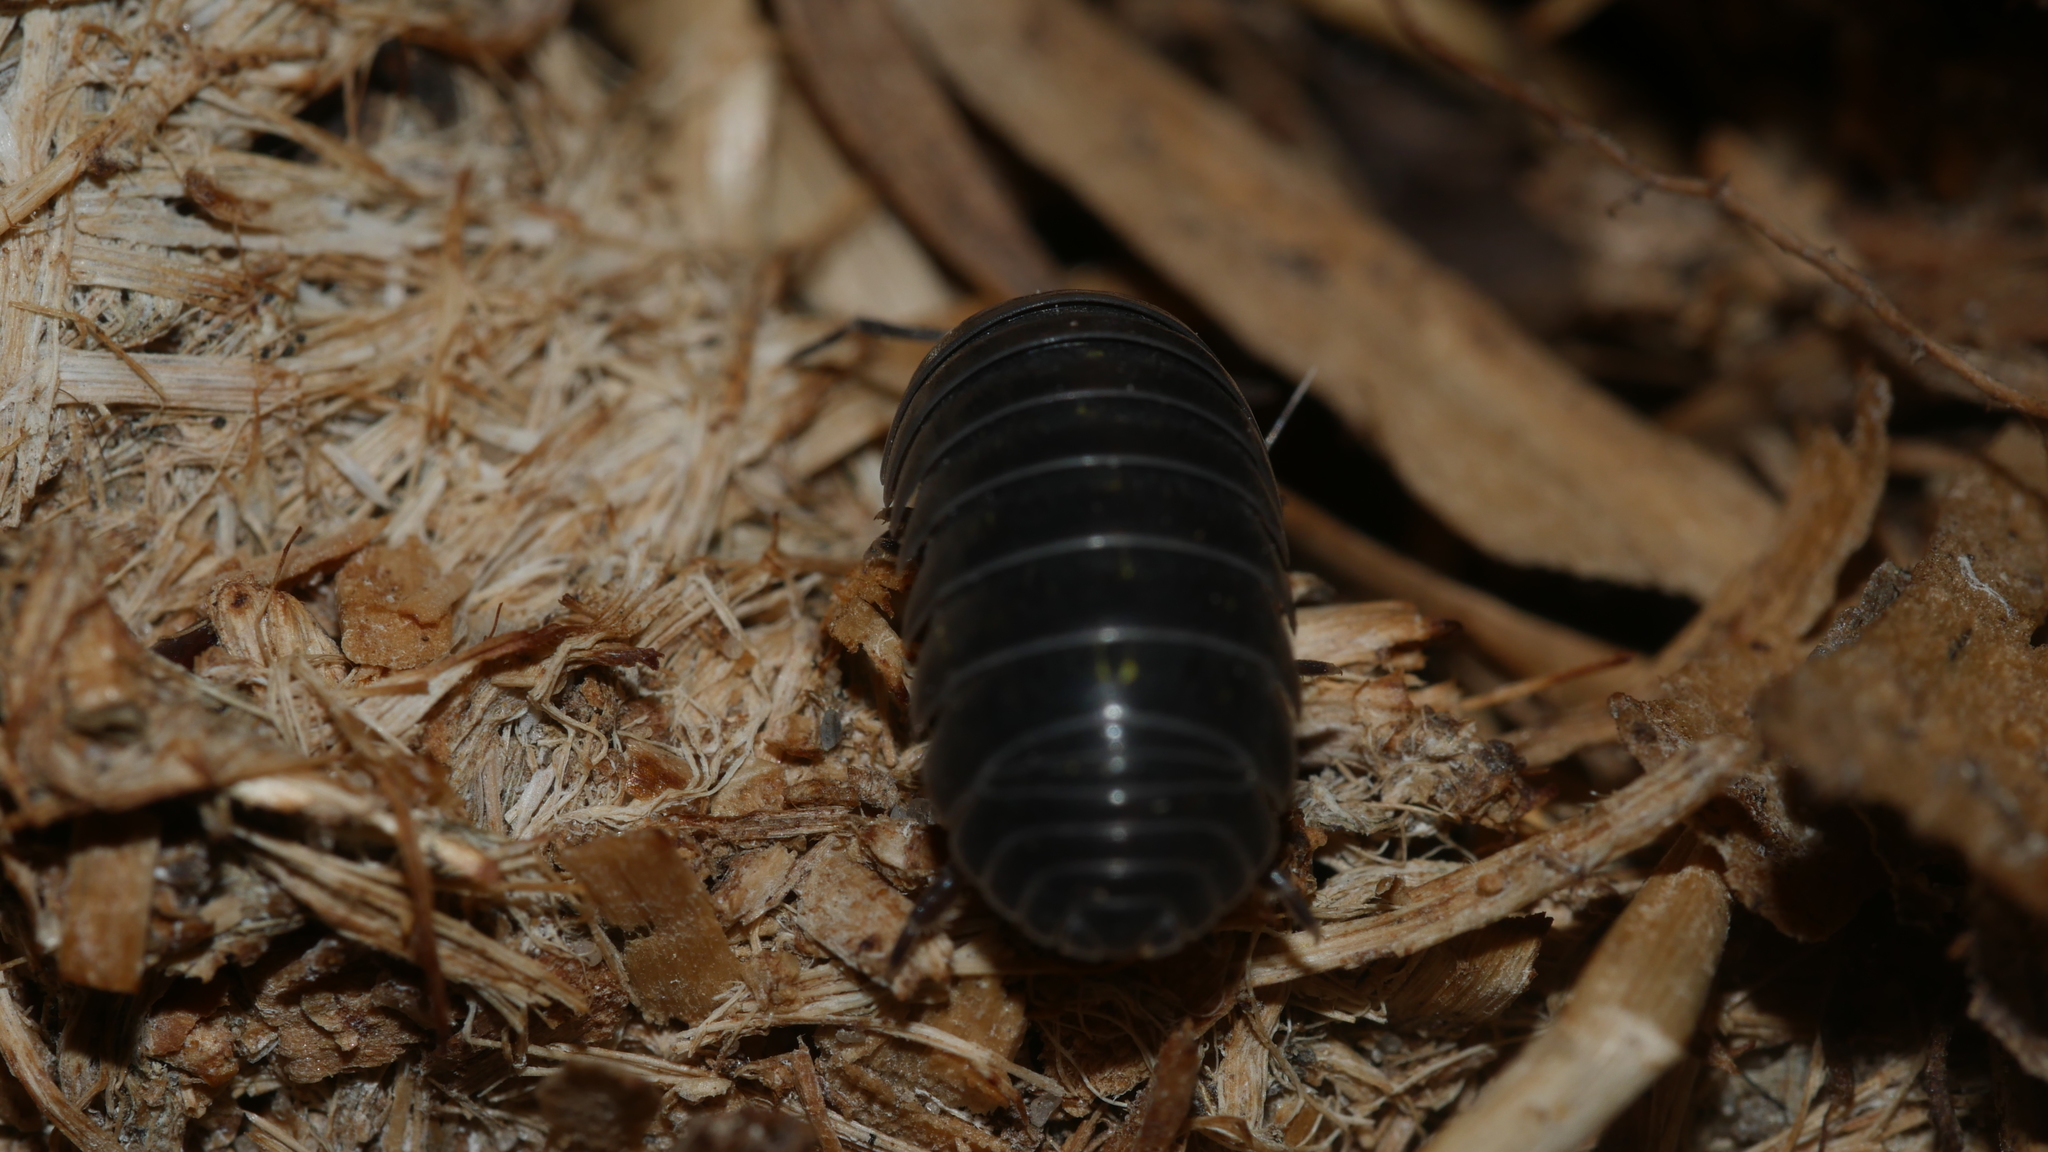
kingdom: Animalia
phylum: Arthropoda
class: Malacostraca
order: Isopoda
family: Armadillidiidae
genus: Armadillidium
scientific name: Armadillidium vulgare
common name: Common pill woodlouse
